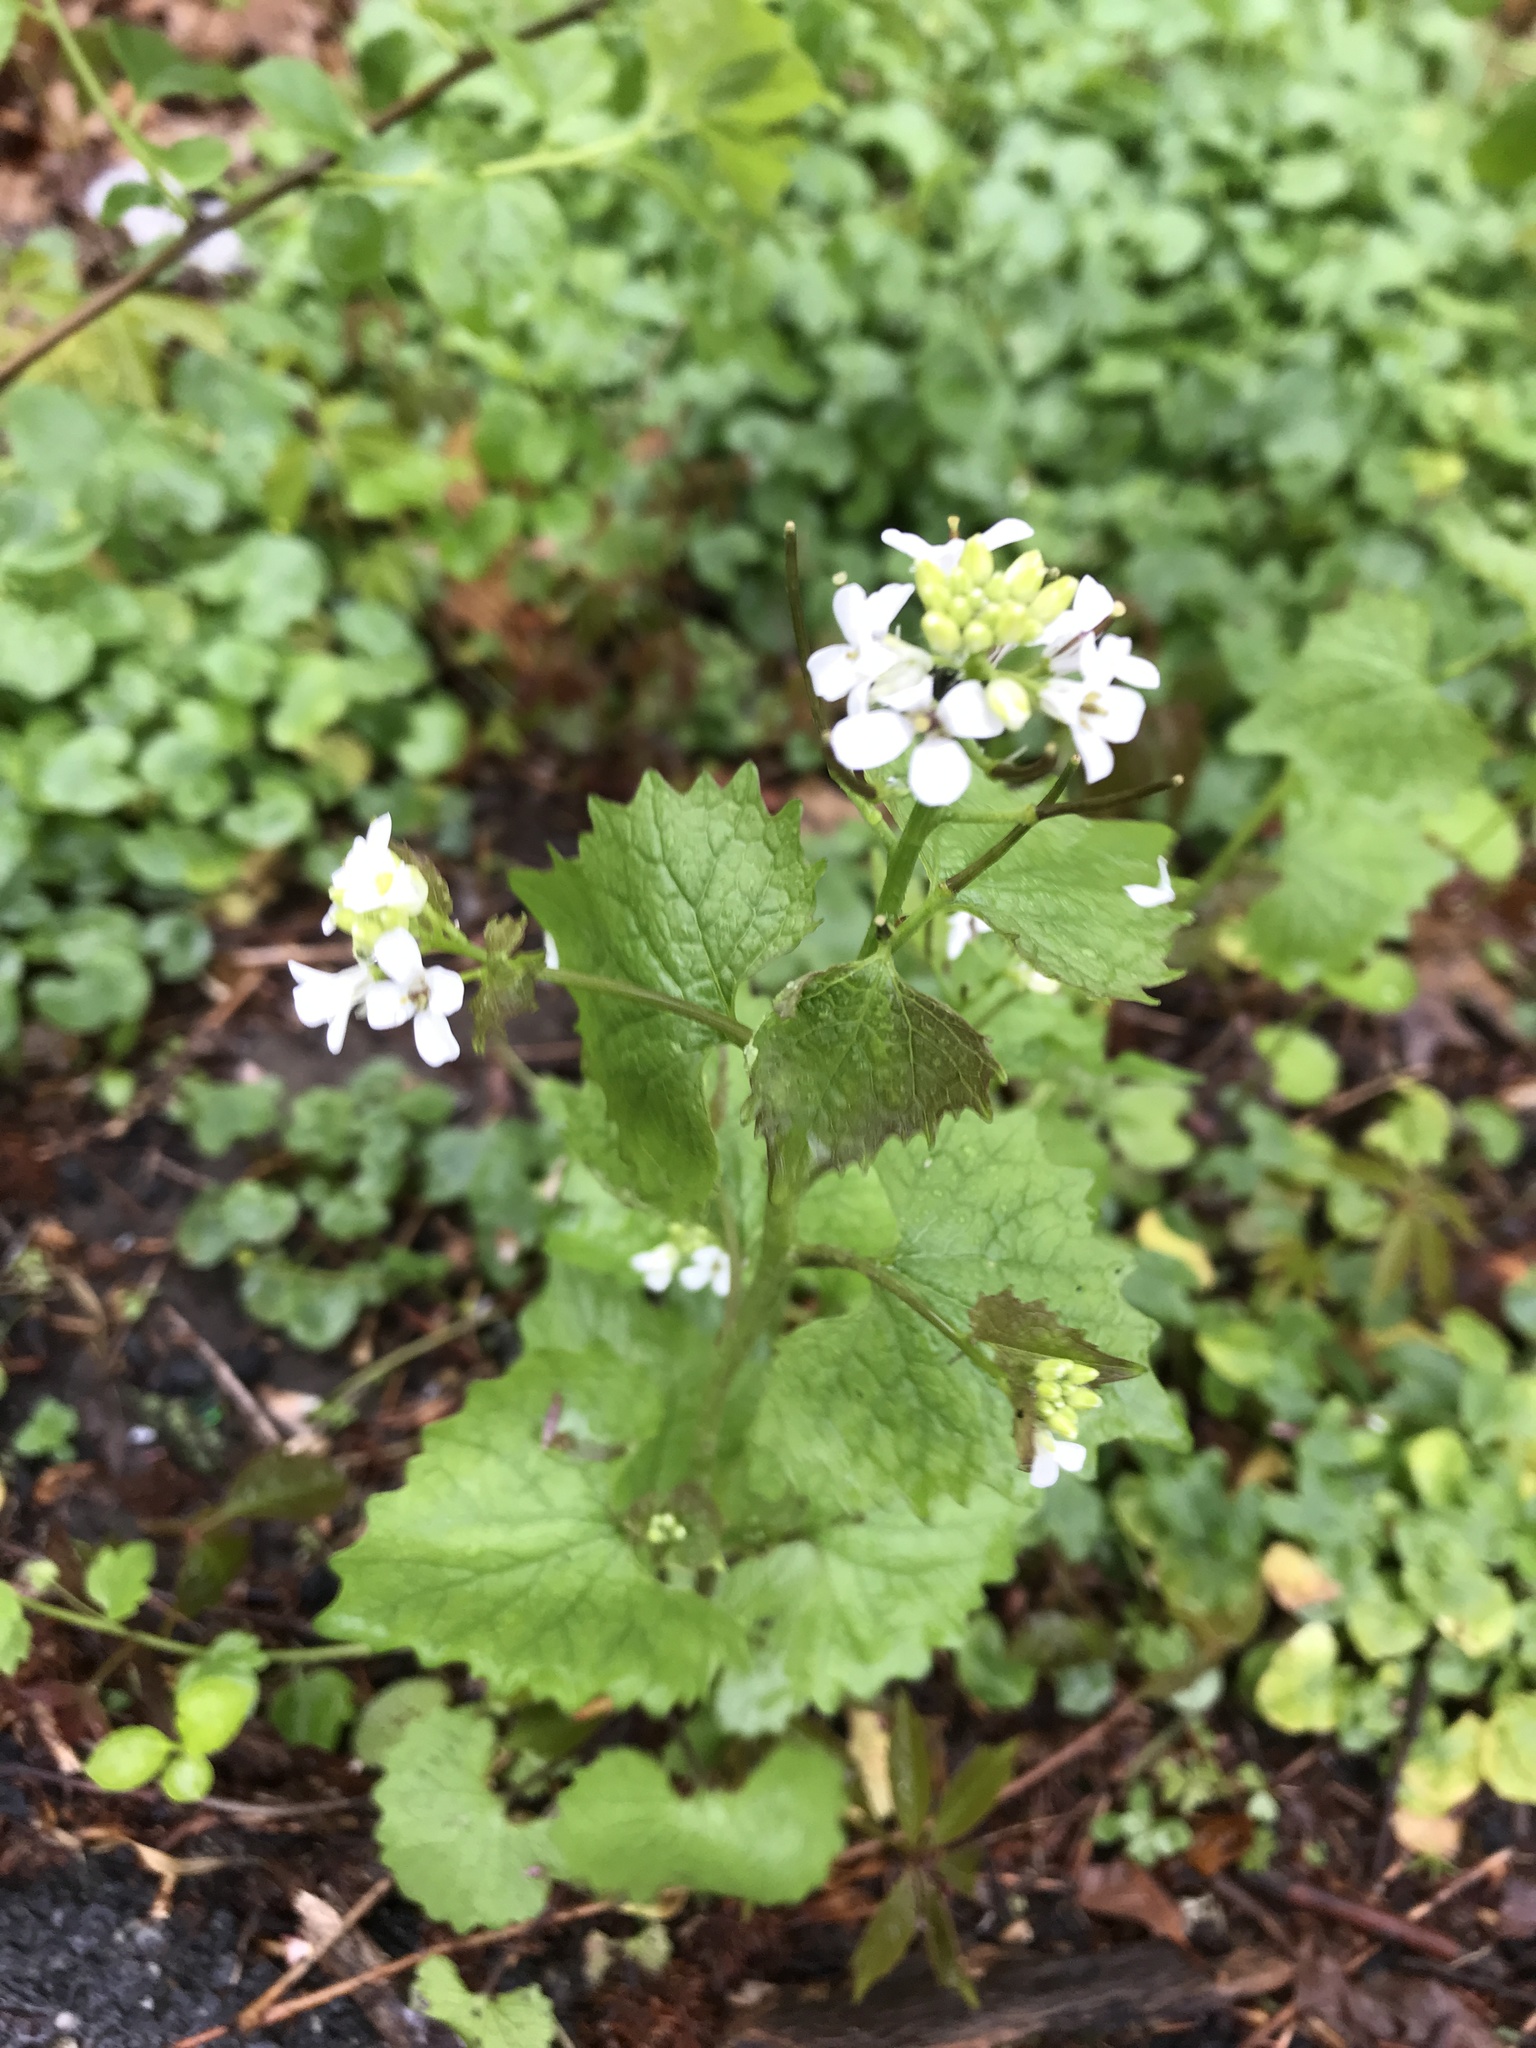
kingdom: Plantae
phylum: Tracheophyta
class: Magnoliopsida
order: Brassicales
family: Brassicaceae
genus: Alliaria
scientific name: Alliaria petiolata
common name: Garlic mustard
